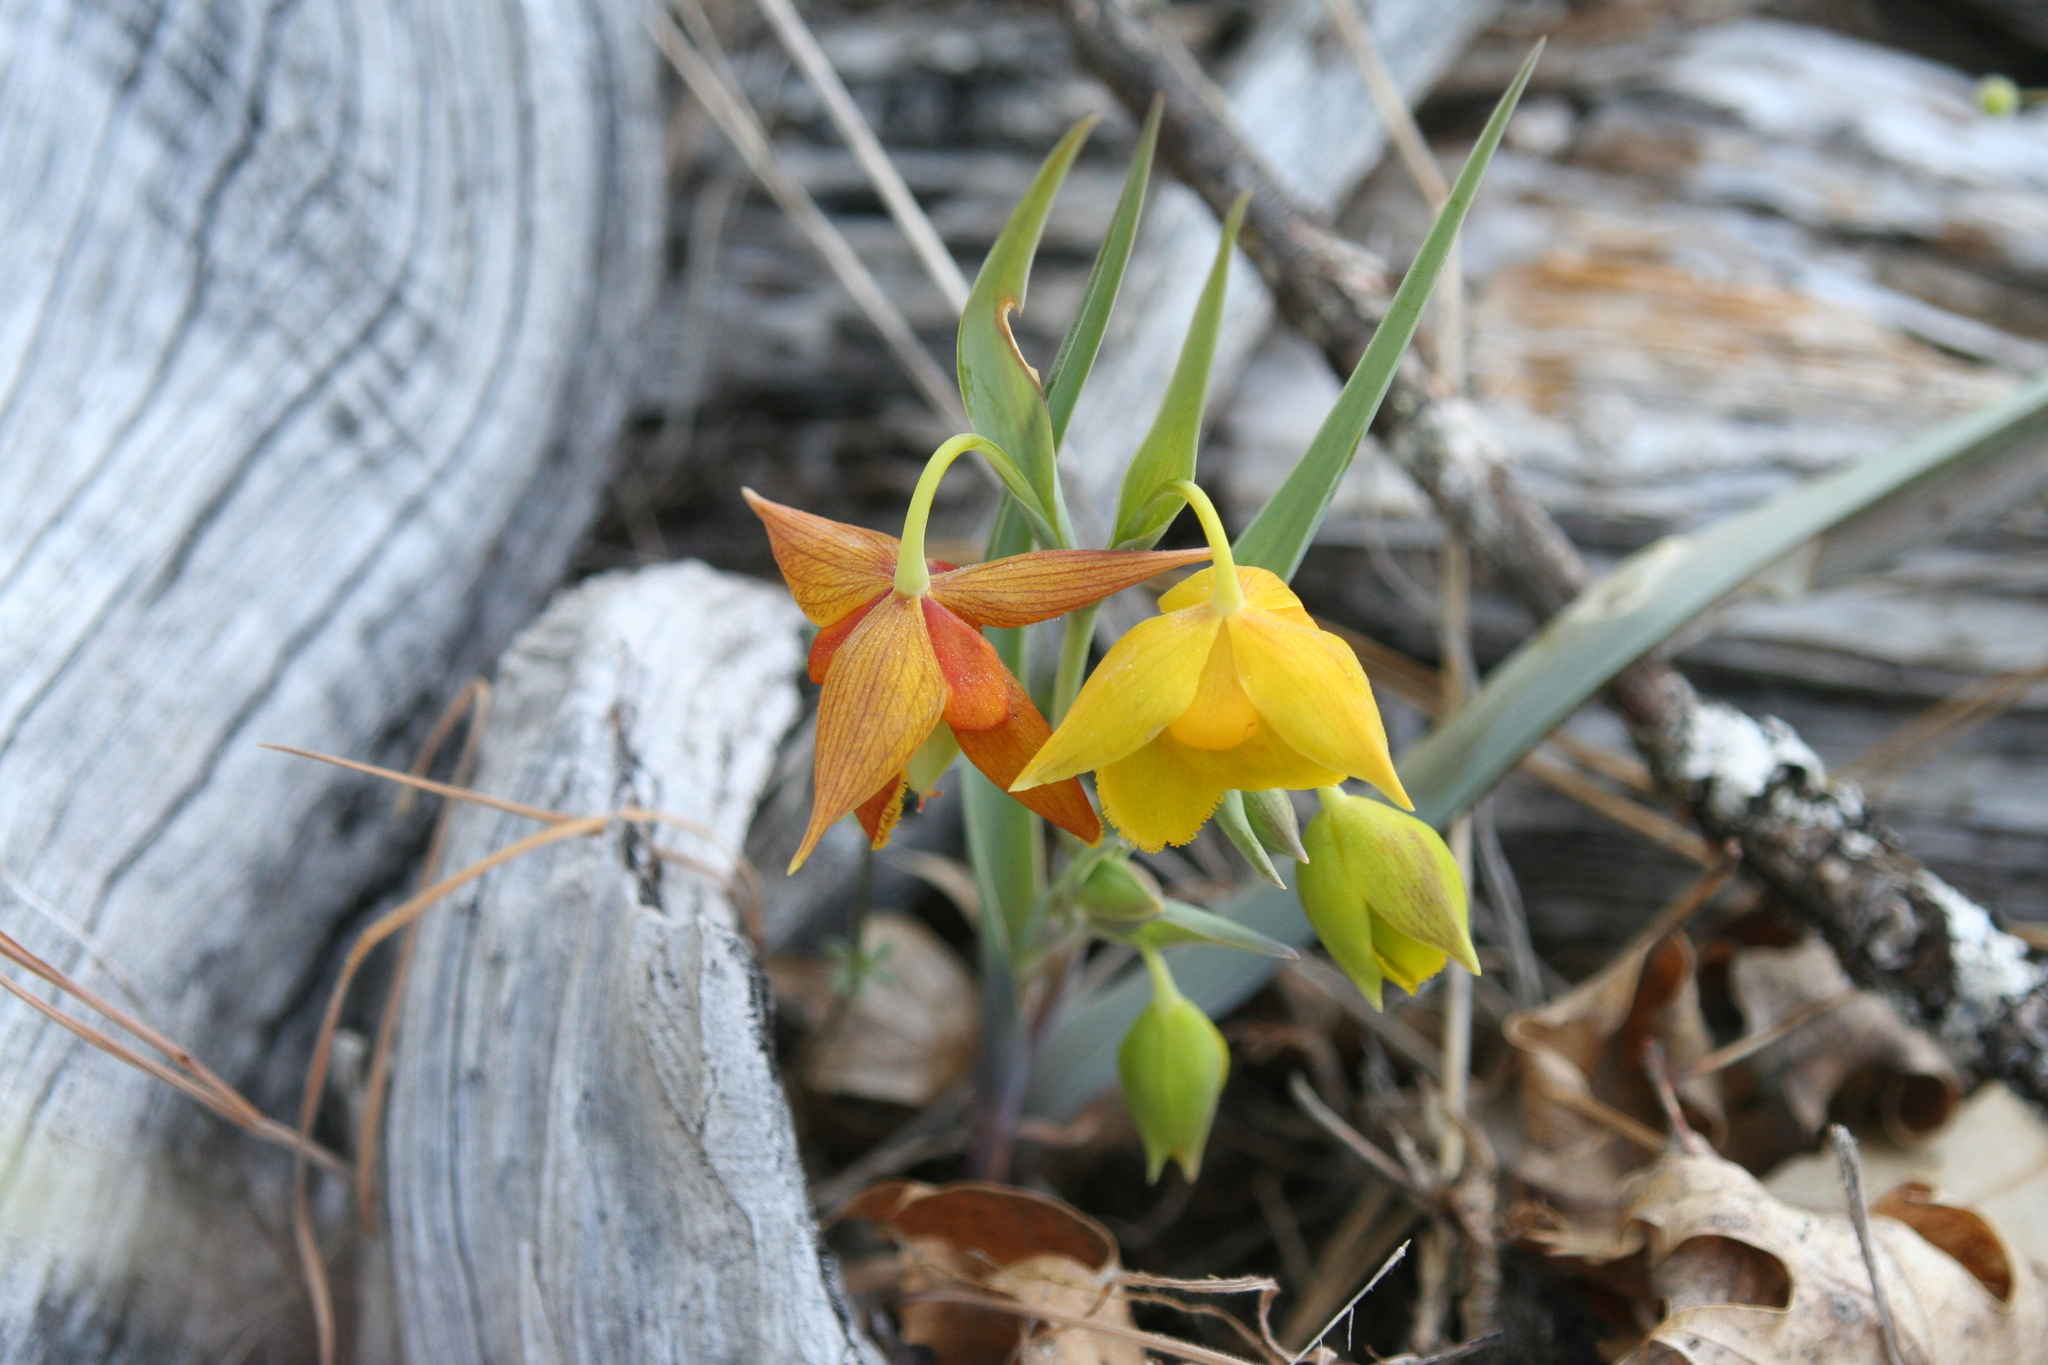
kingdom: Plantae
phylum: Tracheophyta
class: Liliopsida
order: Liliales
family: Liliaceae
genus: Calochortus
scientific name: Calochortus amabilis
